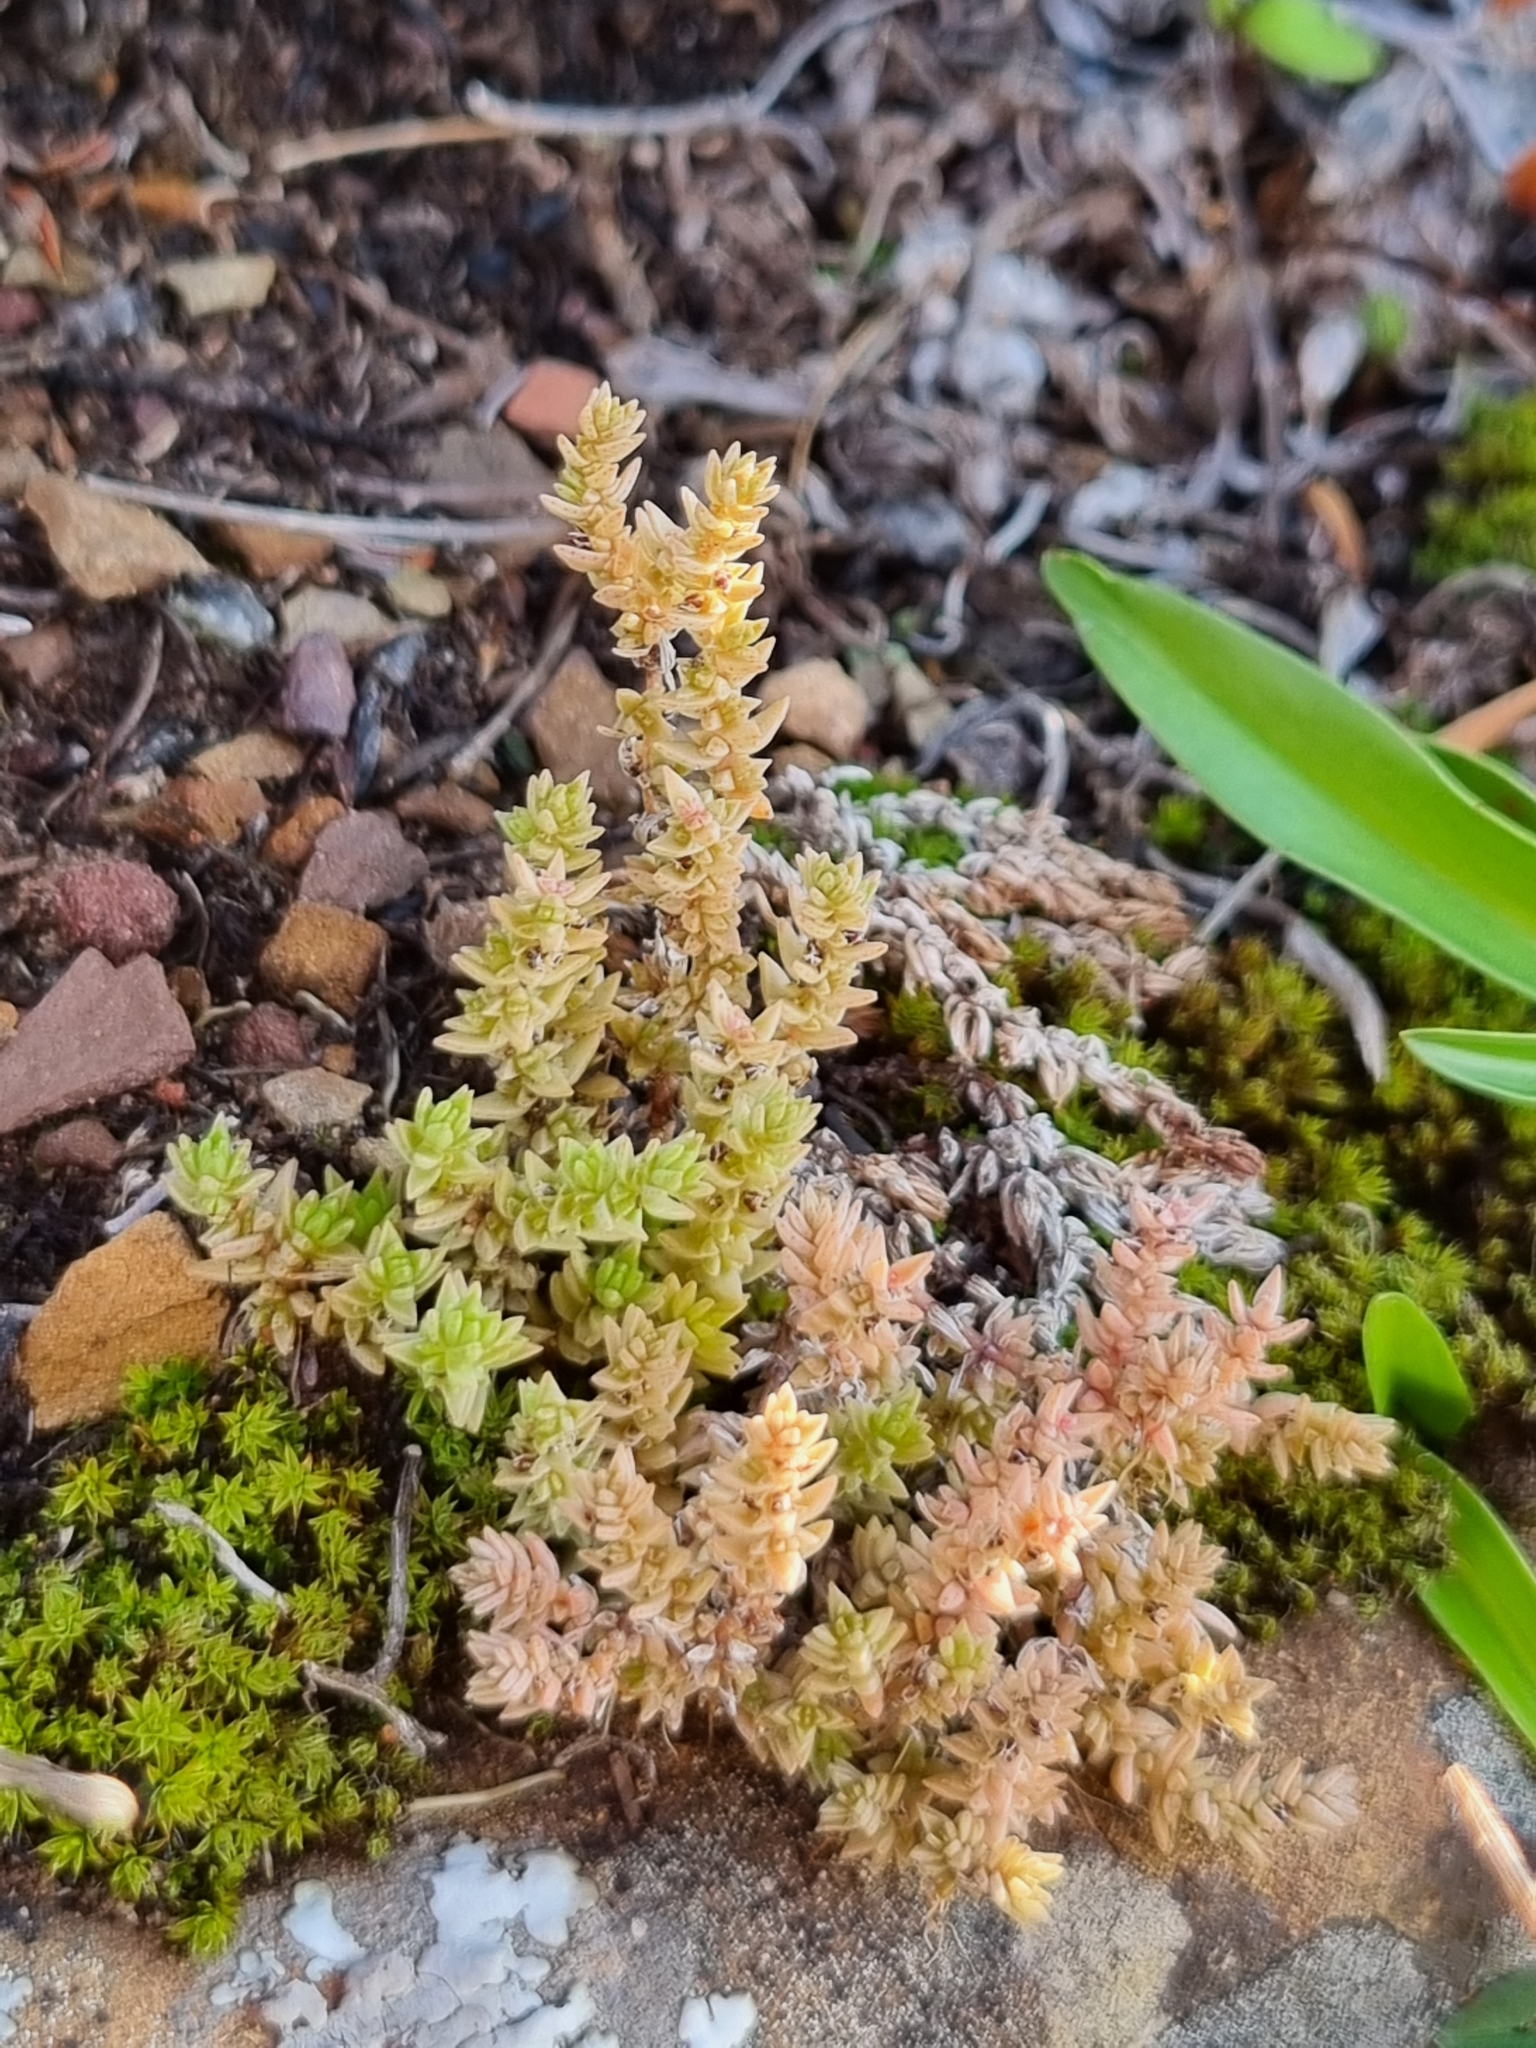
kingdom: Plantae
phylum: Tracheophyta
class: Magnoliopsida
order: Saxifragales
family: Crassulaceae
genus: Crassula
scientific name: Crassula lanceolata
